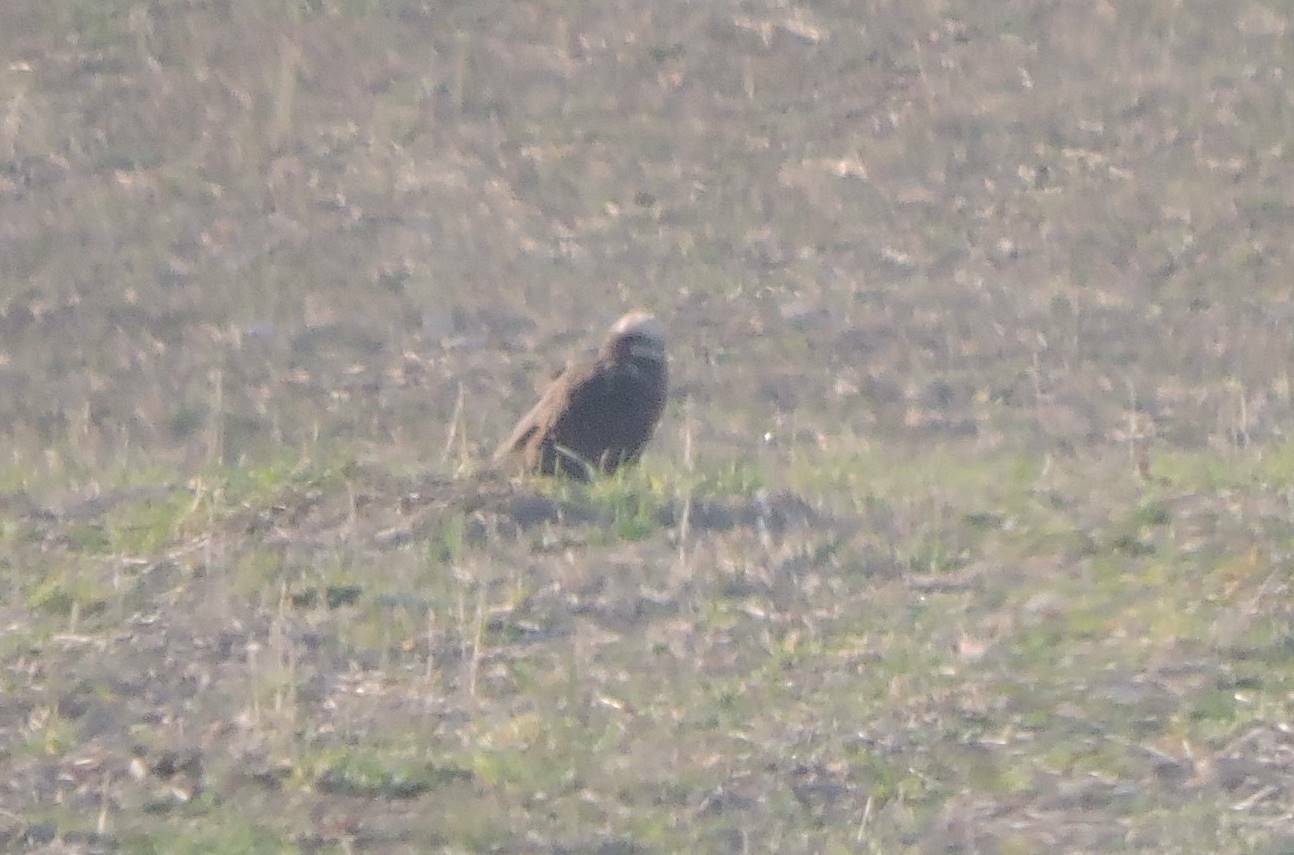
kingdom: Animalia
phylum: Chordata
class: Aves
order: Accipitriformes
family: Accipitridae
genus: Circus
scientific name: Circus aeruginosus
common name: Western marsh harrier
